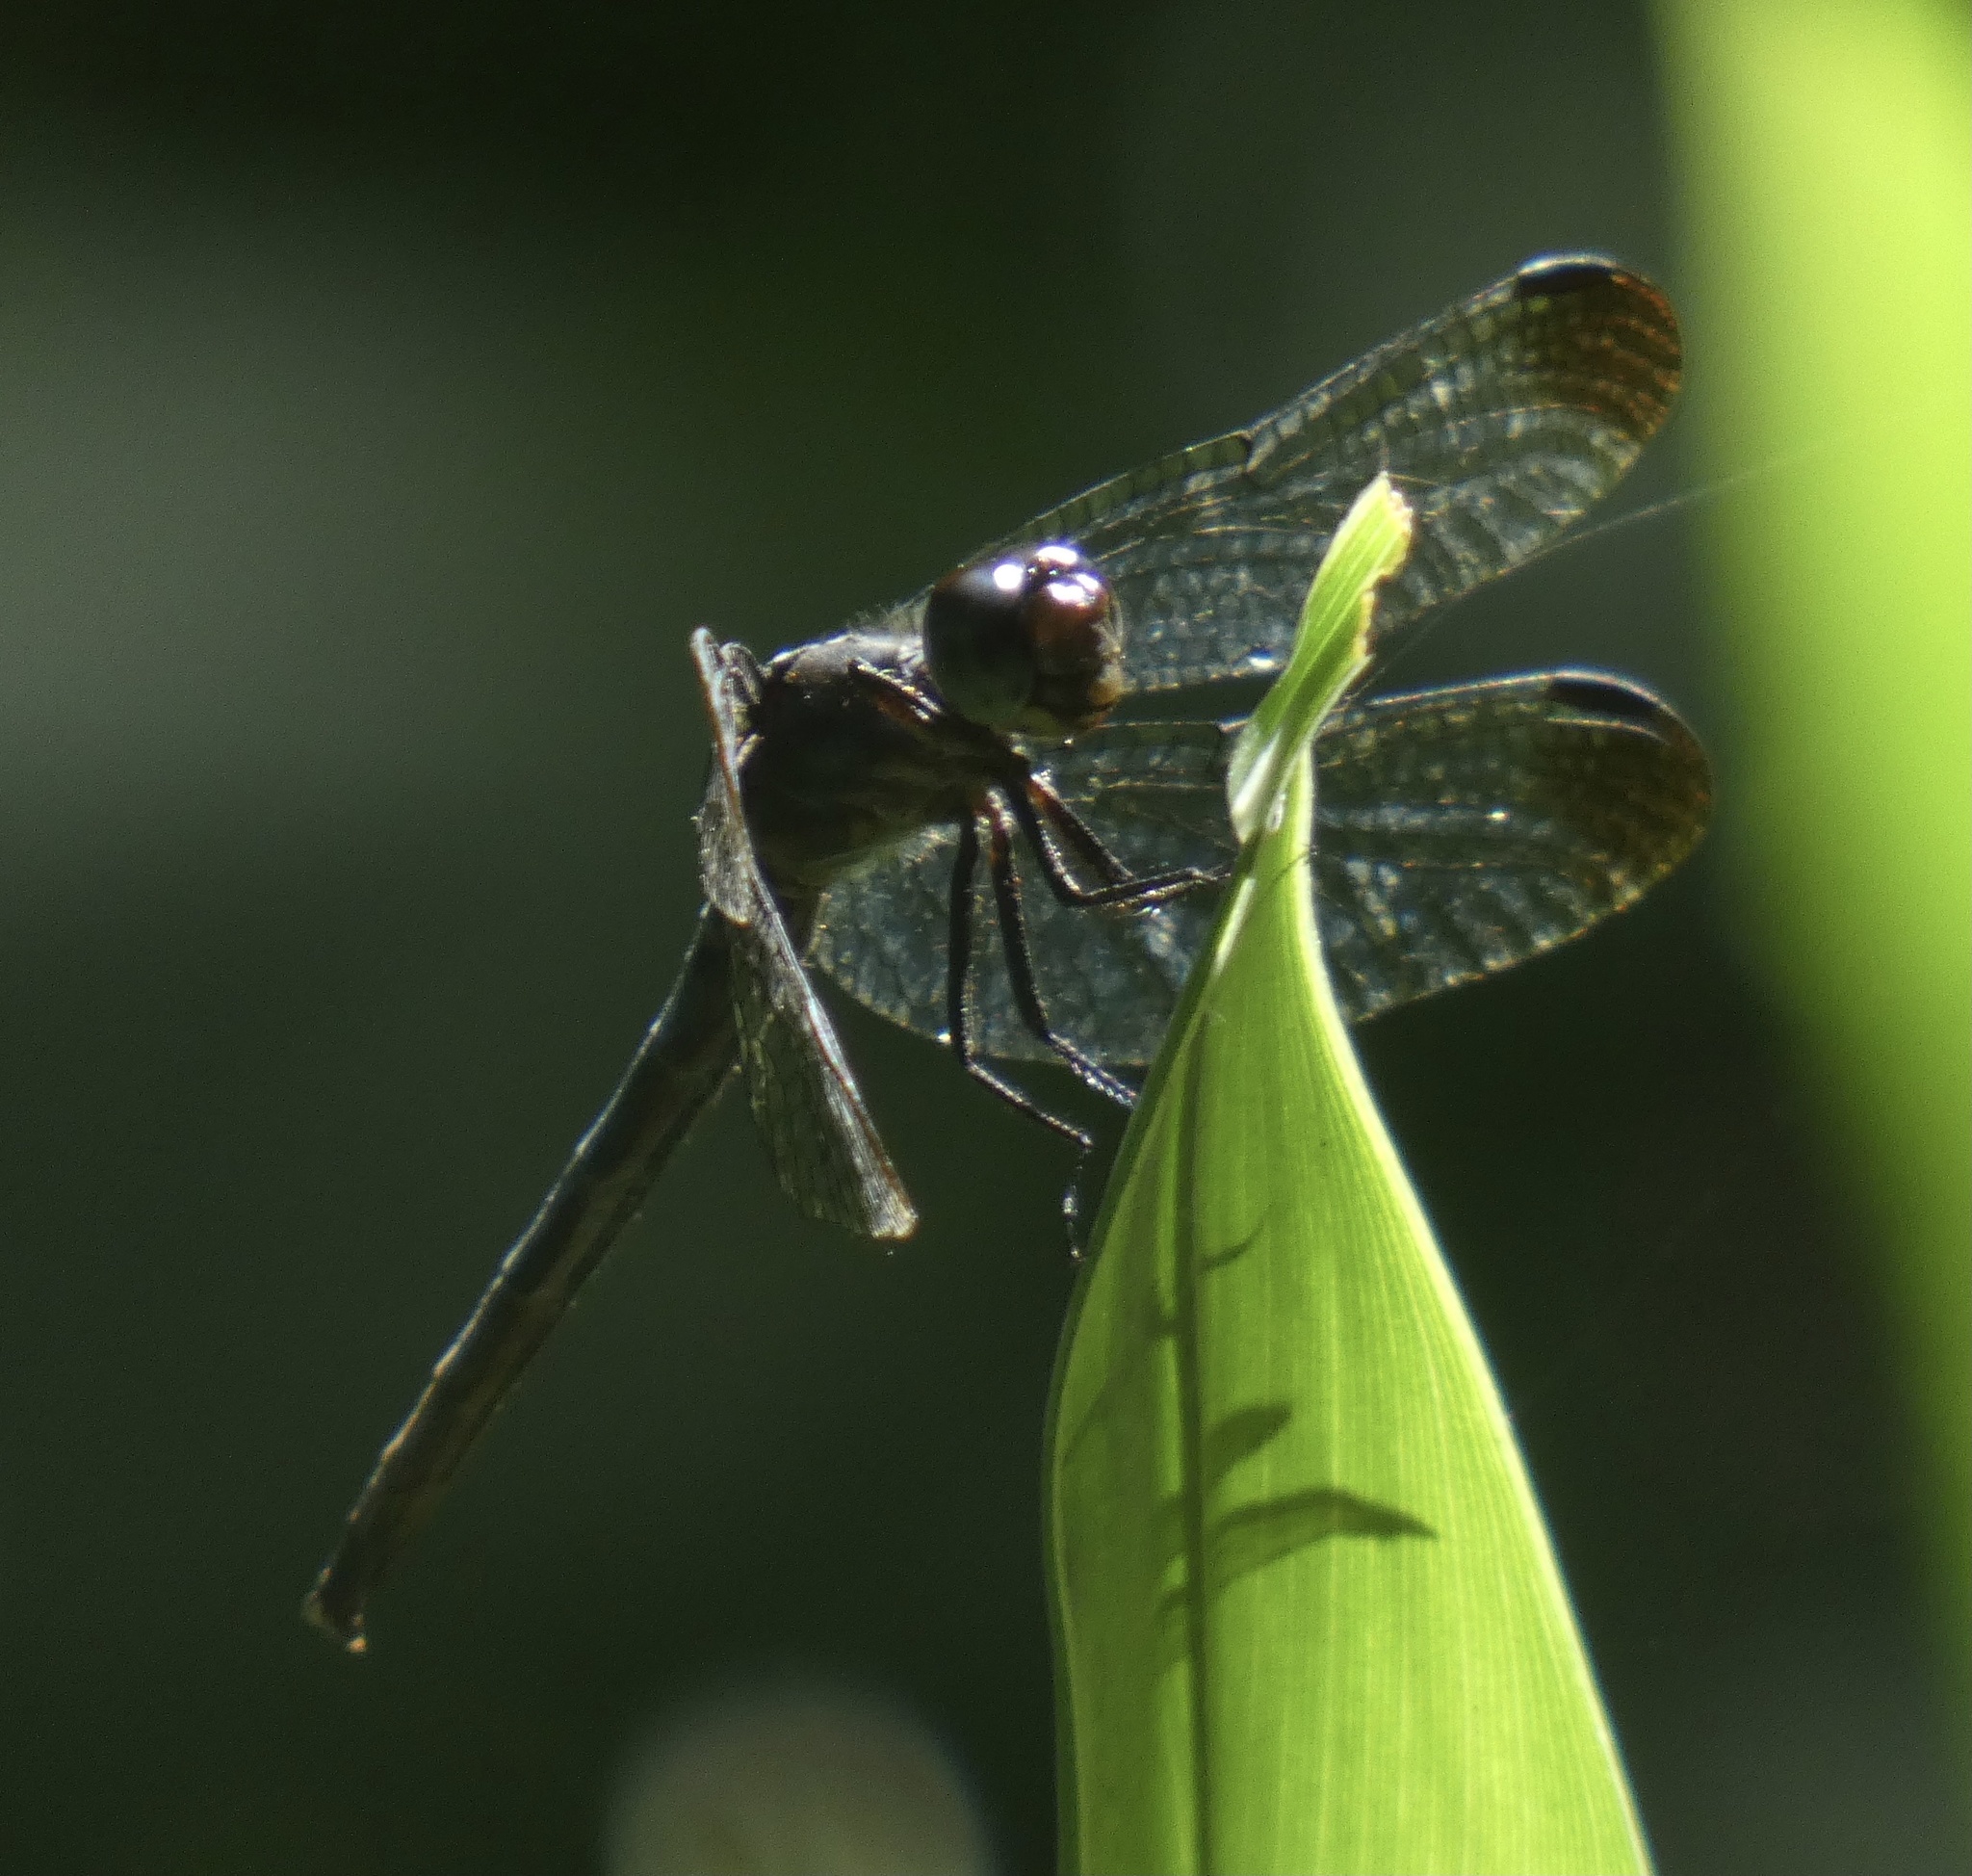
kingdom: Animalia
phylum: Arthropoda
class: Insecta
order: Odonata
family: Libellulidae
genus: Dasythemis
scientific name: Dasythemis venosa
